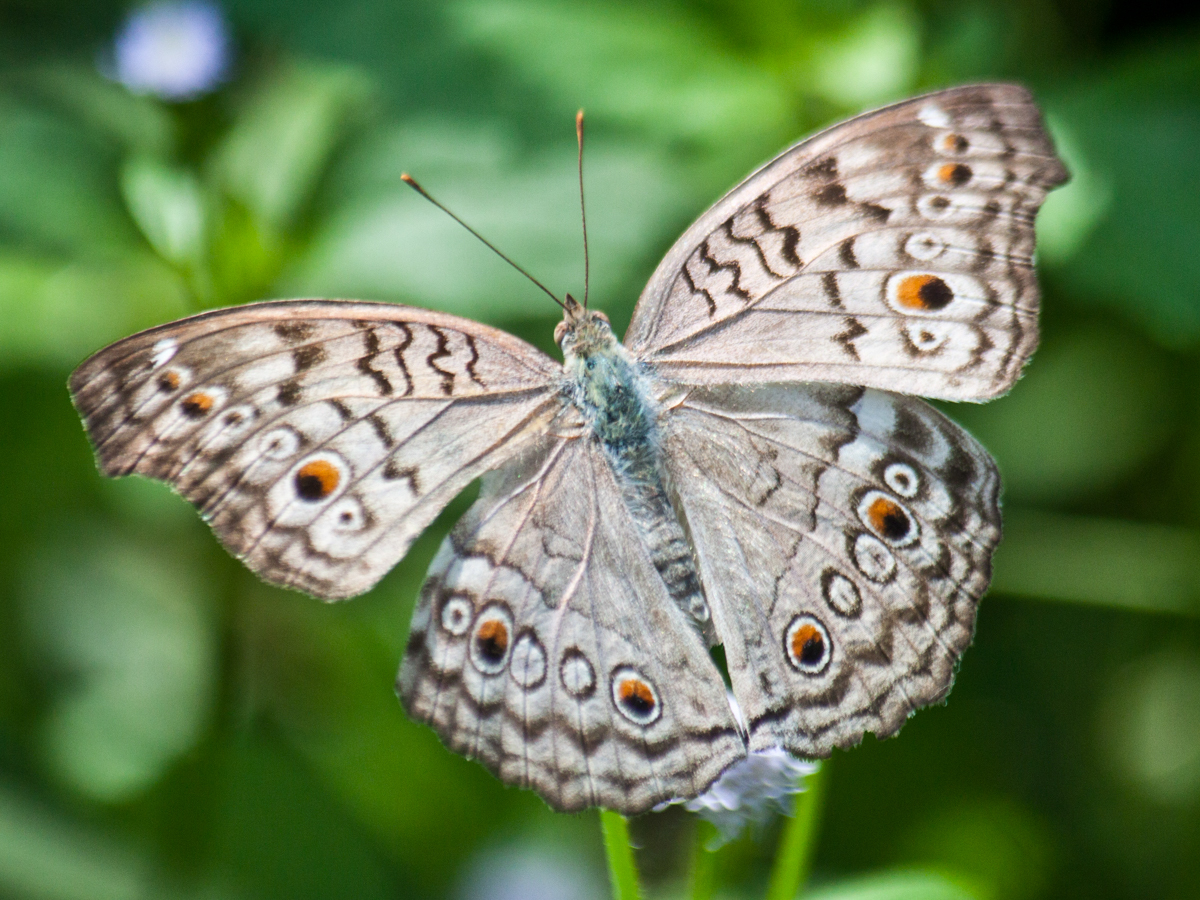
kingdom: Animalia
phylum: Arthropoda
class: Insecta
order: Lepidoptera
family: Nymphalidae
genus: Junonia
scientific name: Junonia atlites
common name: Grey pansy
